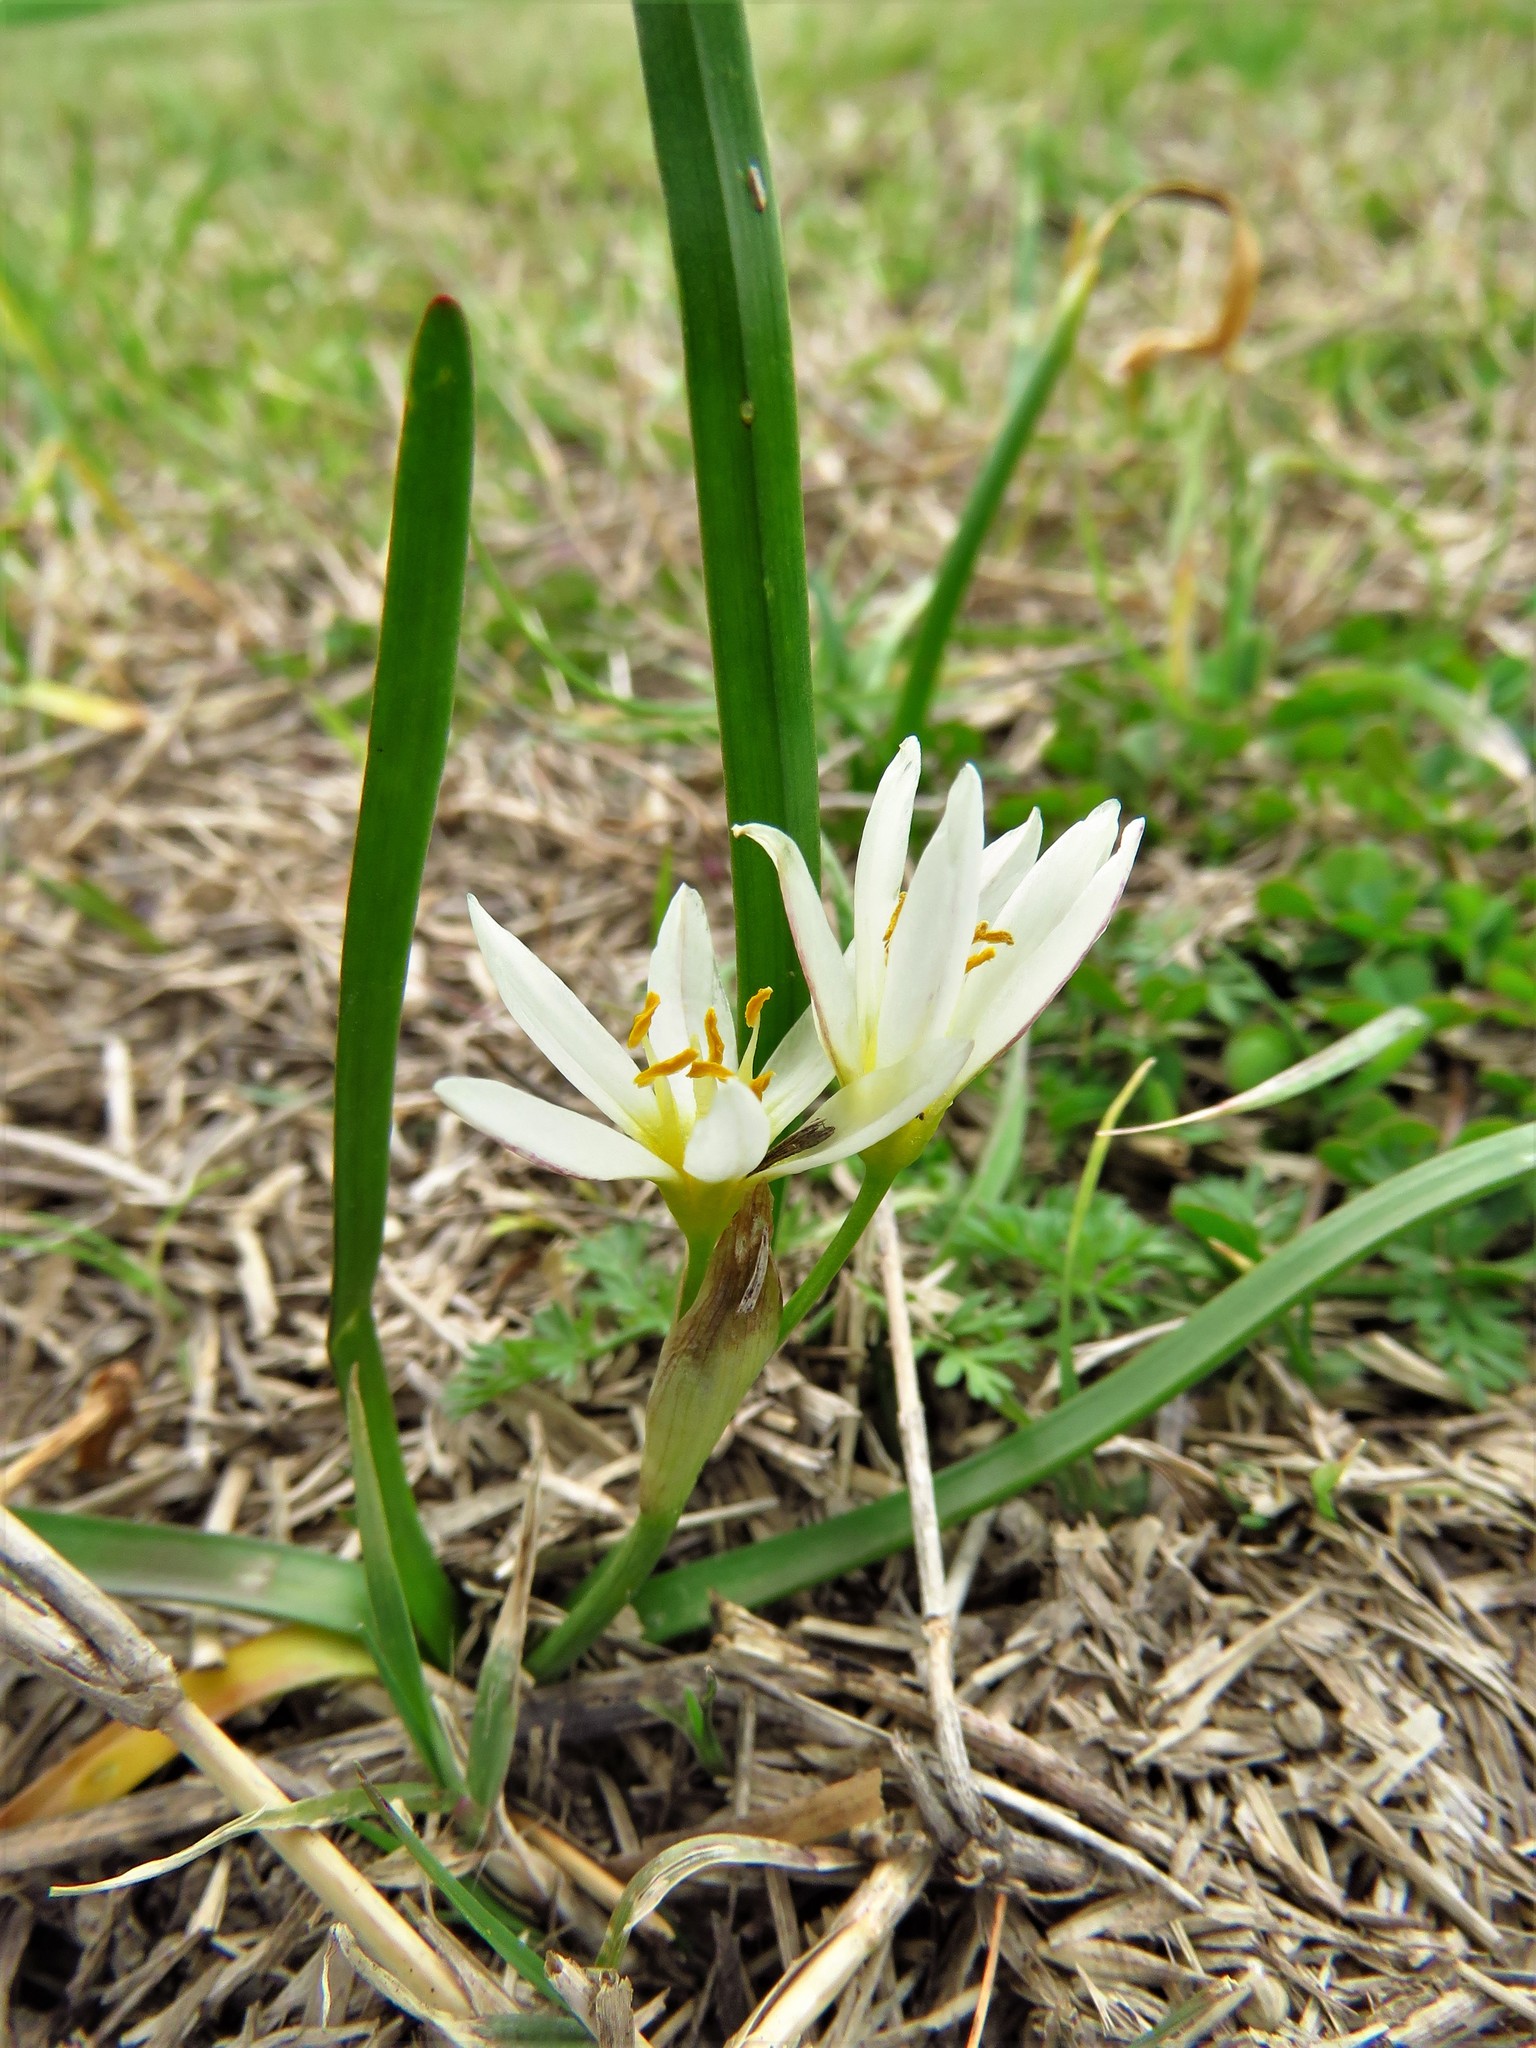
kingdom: Plantae
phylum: Tracheophyta
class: Liliopsida
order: Asparagales
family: Amaryllidaceae
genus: Nothoscordum
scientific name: Nothoscordum bivalve
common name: Crow-poison
